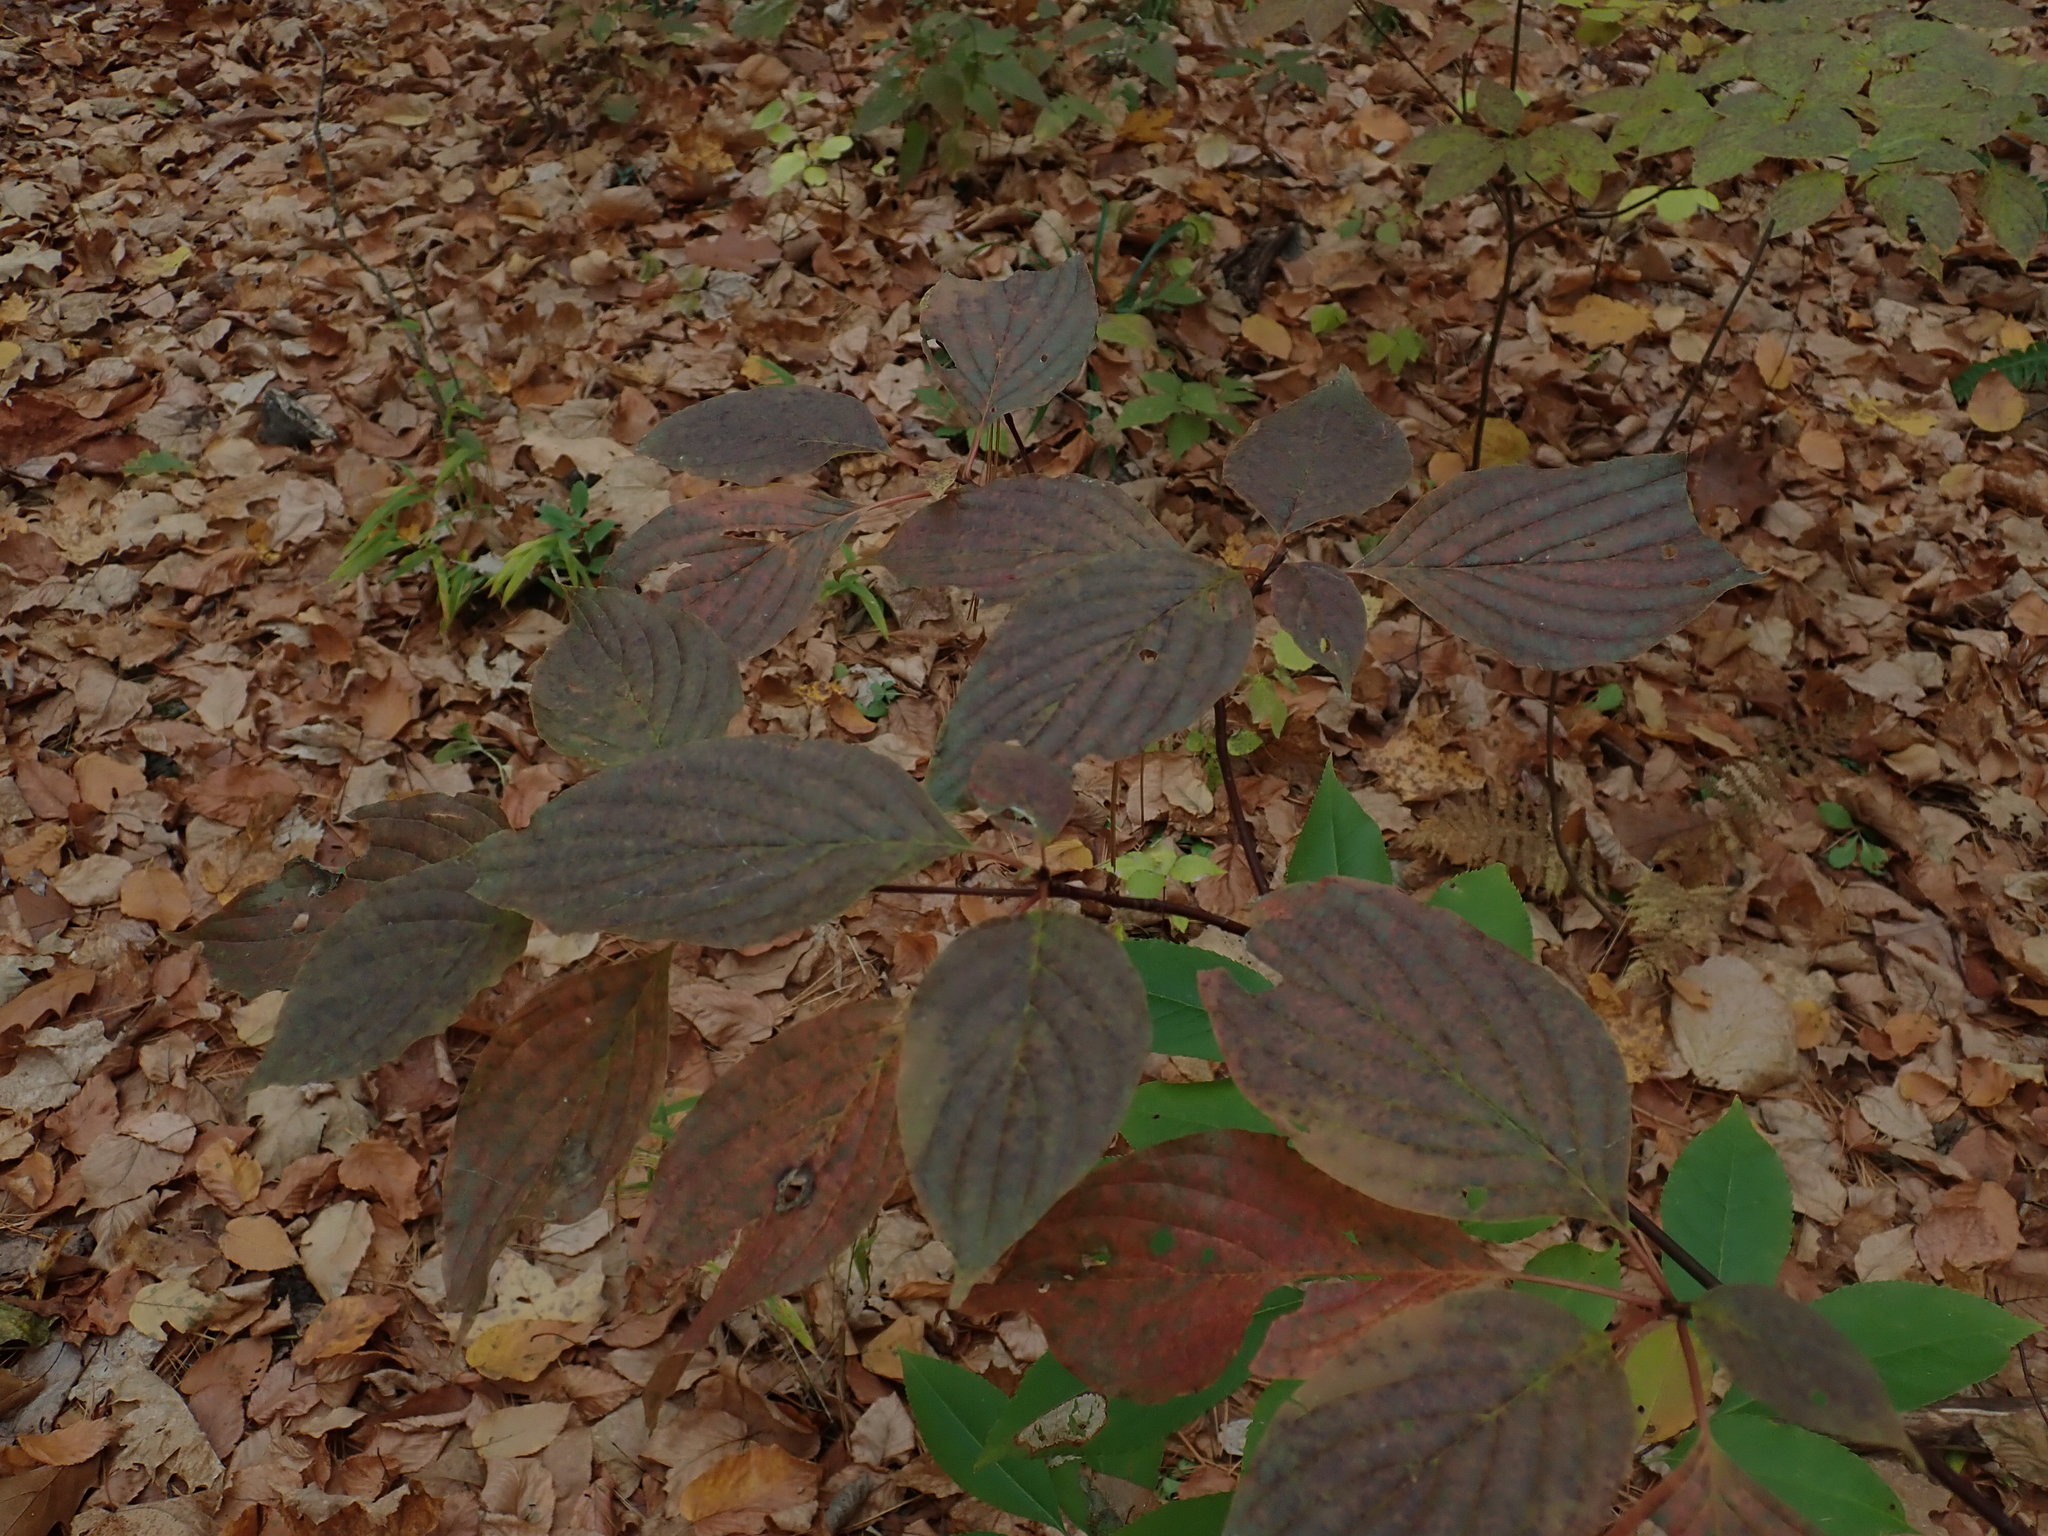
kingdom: Plantae
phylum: Tracheophyta
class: Magnoliopsida
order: Cornales
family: Cornaceae
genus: Cornus
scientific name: Cornus alternifolia
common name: Pagoda dogwood
